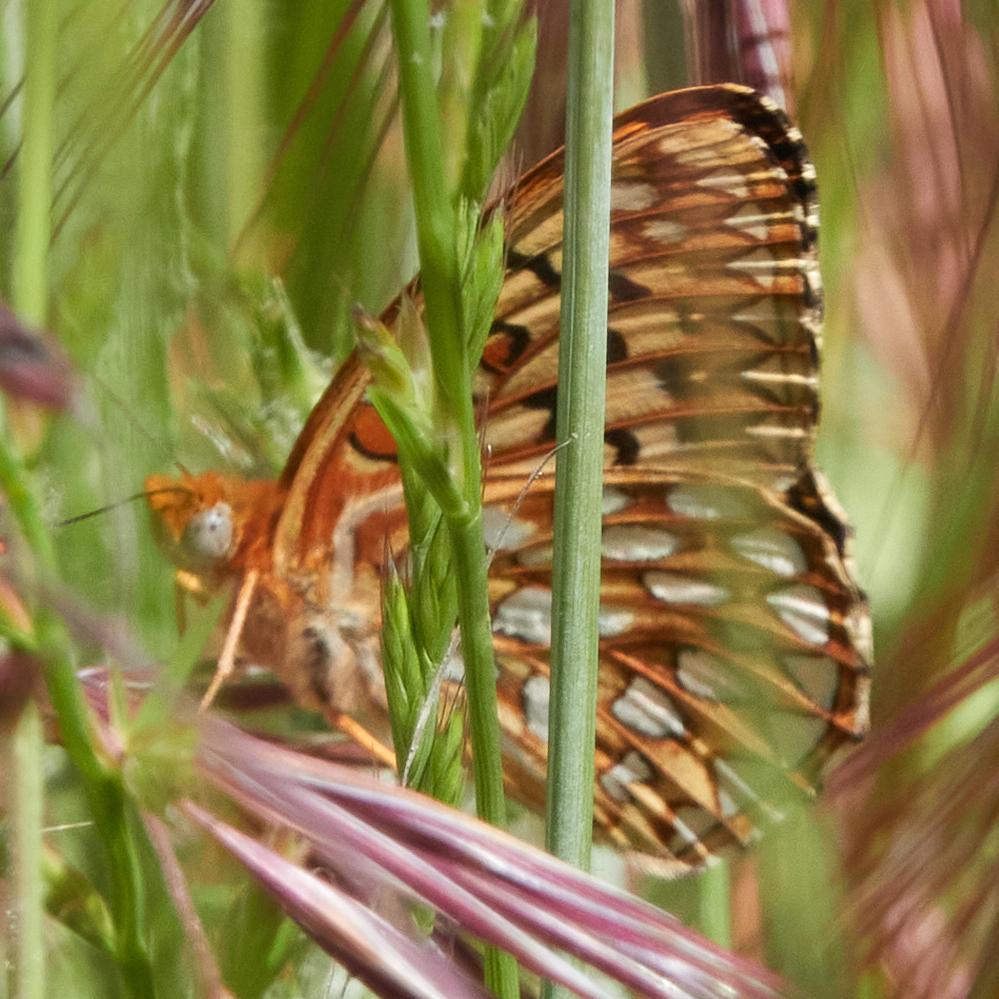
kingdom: Animalia
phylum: Arthropoda
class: Insecta
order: Lepidoptera
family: Nymphalidae
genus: Speyeria
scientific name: Speyeria callippe
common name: Callippe fritillary
